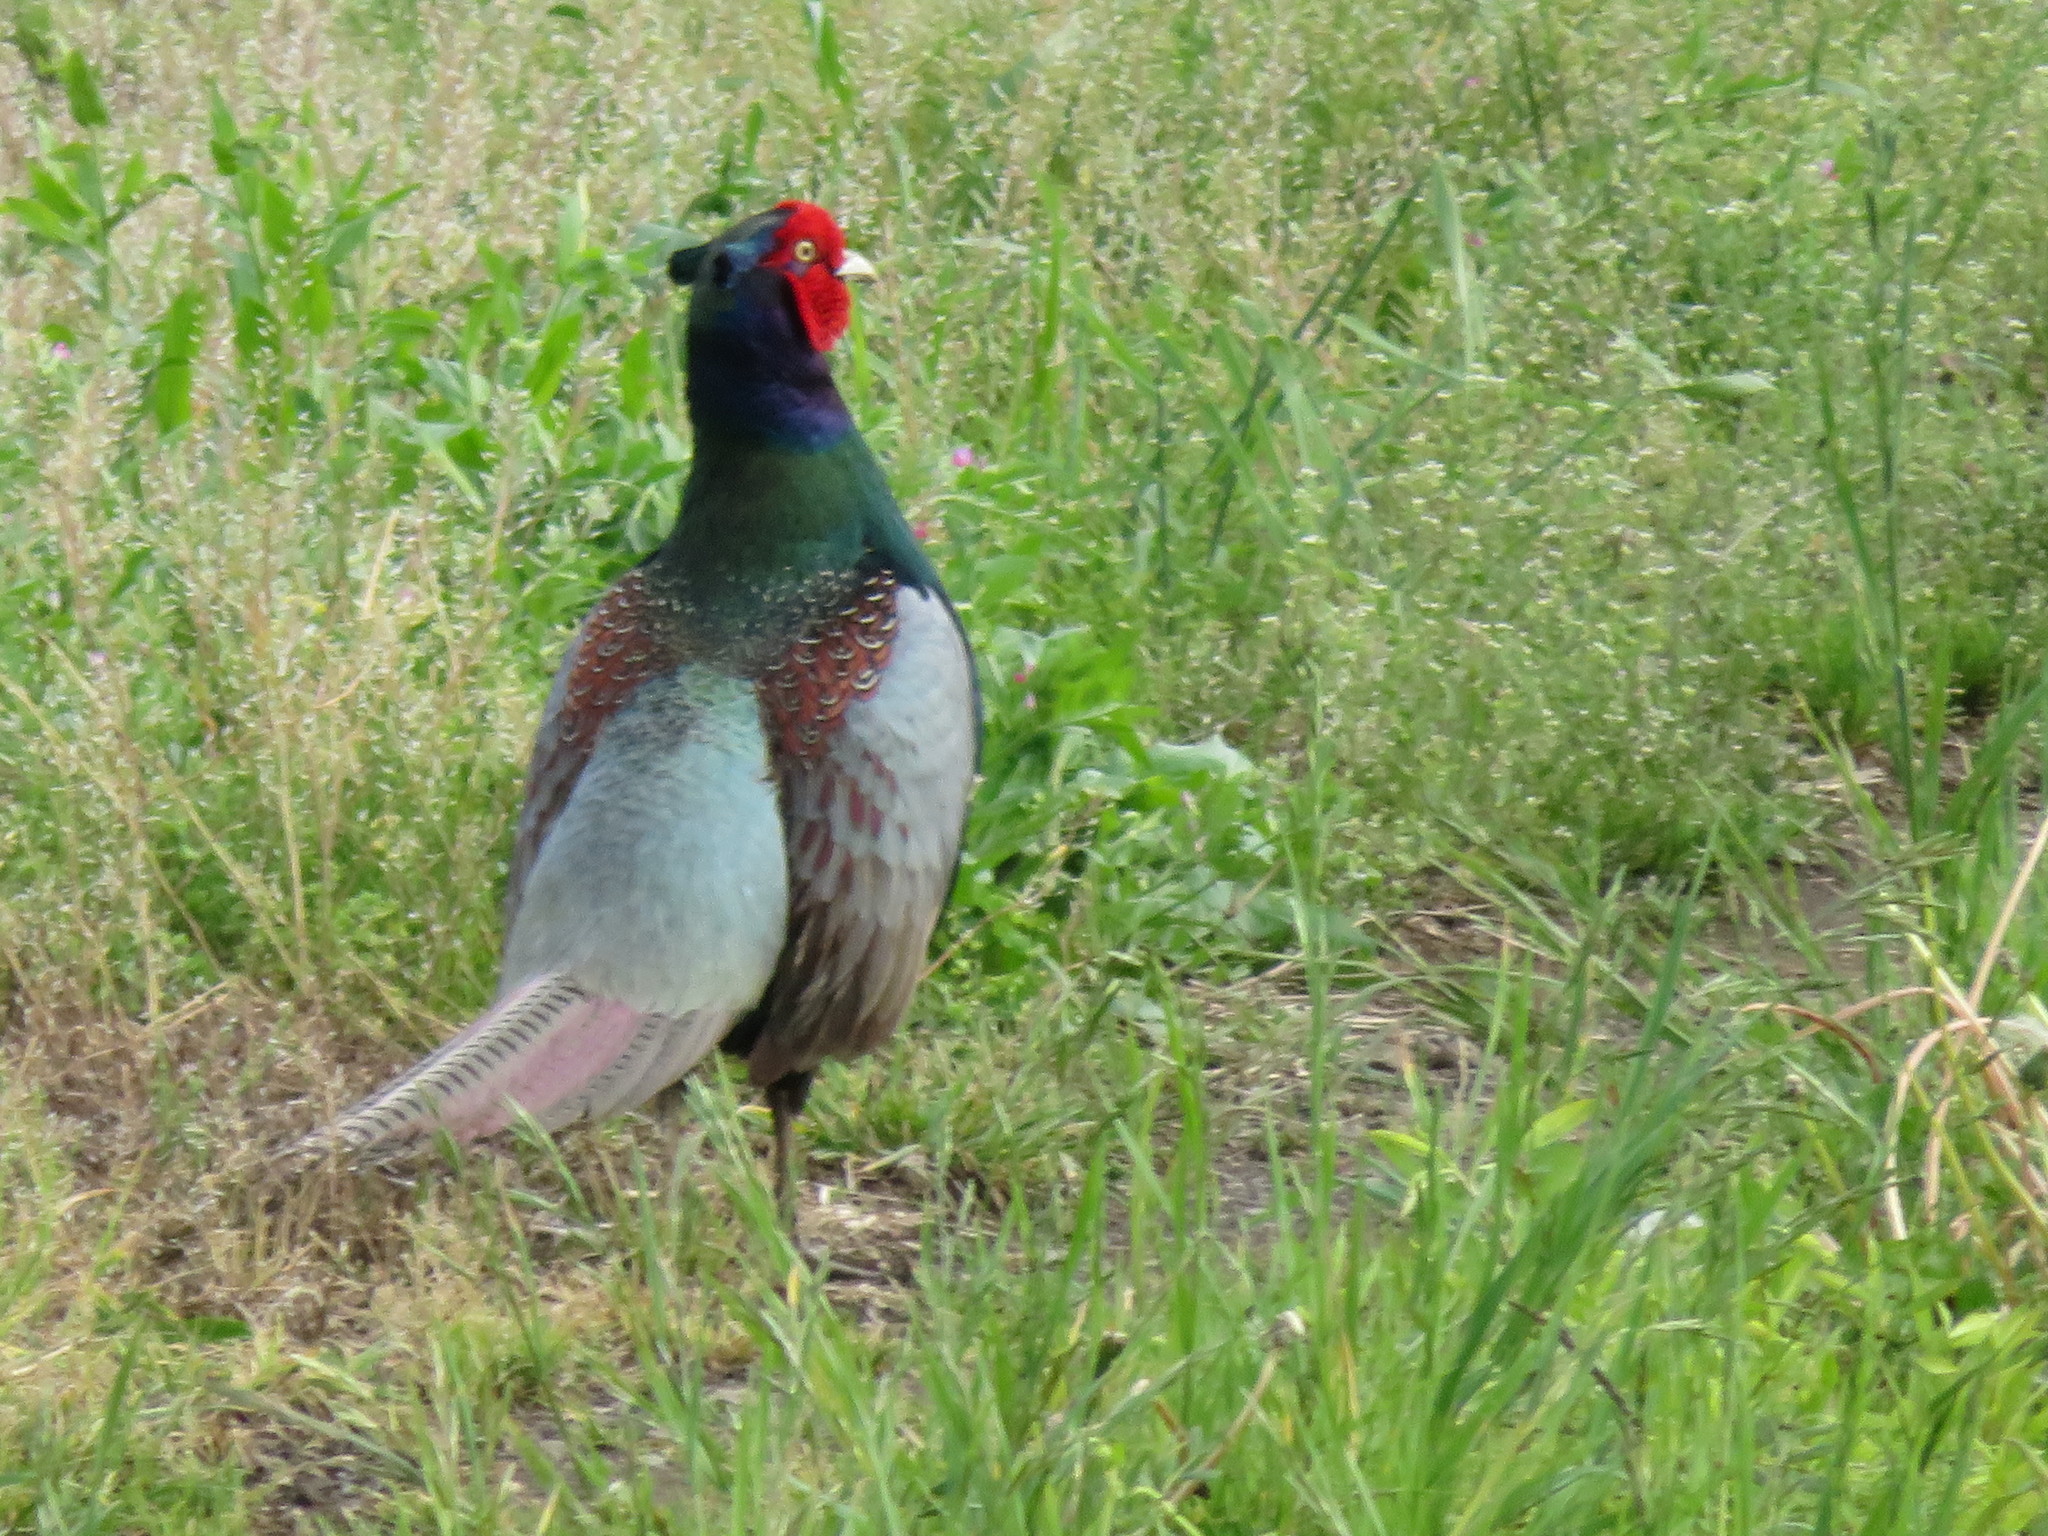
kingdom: Animalia
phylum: Chordata
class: Aves
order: Galliformes
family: Phasianidae
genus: Phasianus
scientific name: Phasianus versicolor
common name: Green pheasant
